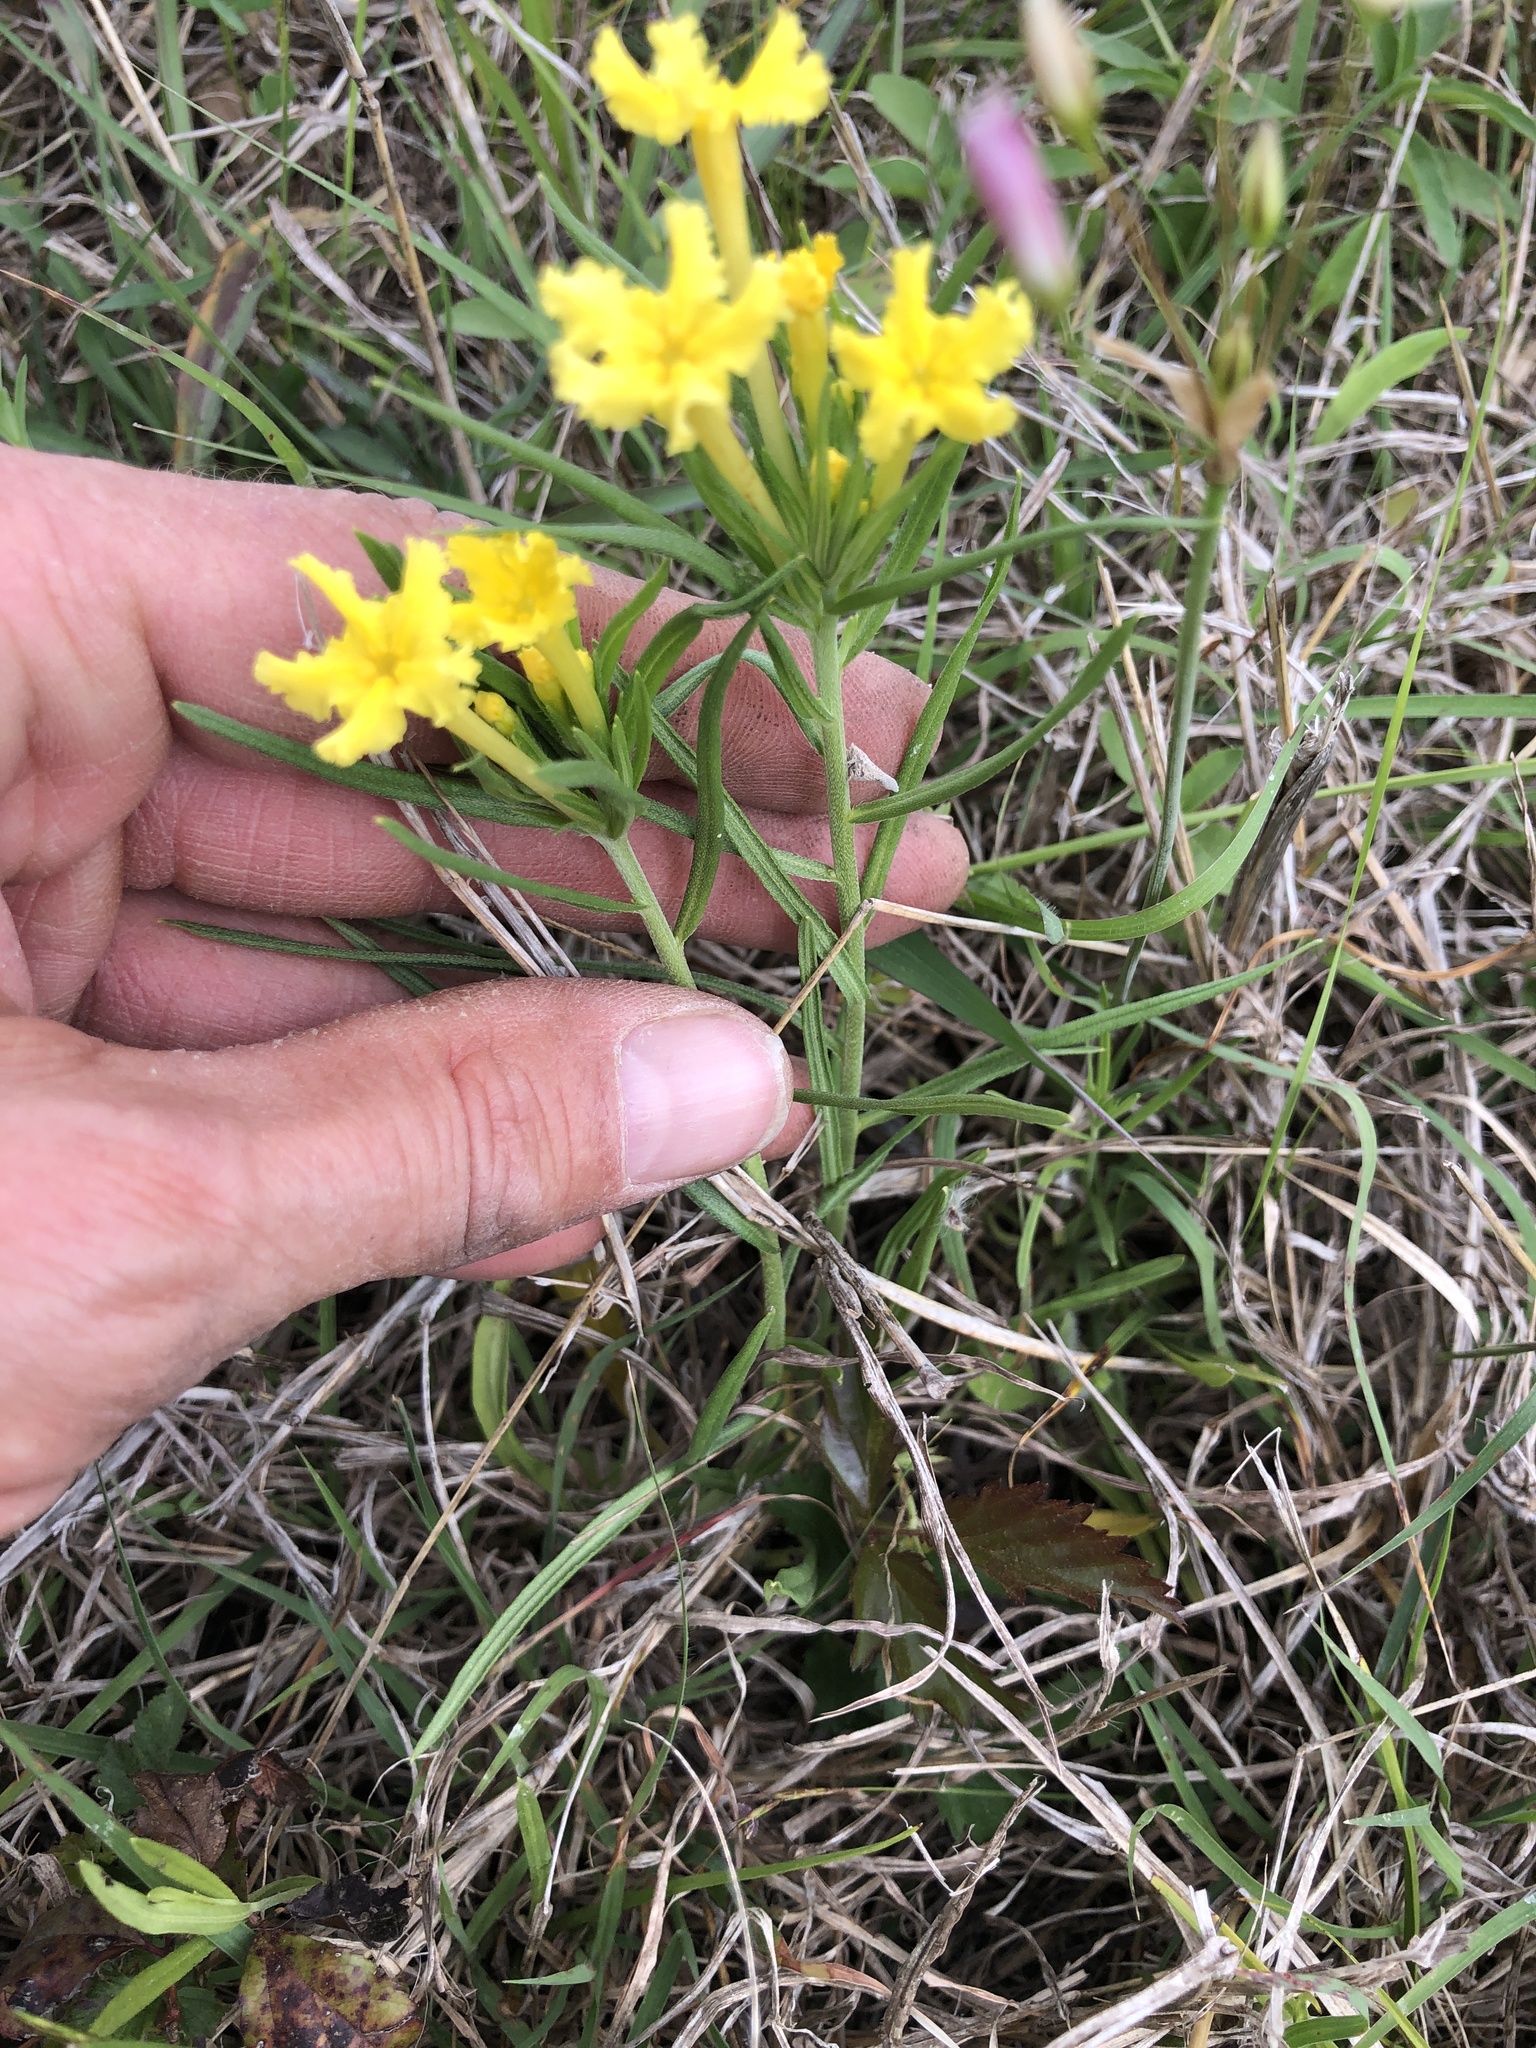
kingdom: Plantae
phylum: Tracheophyta
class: Magnoliopsida
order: Boraginales
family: Boraginaceae
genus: Lithospermum
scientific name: Lithospermum incisum
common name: Fringed gromwell
